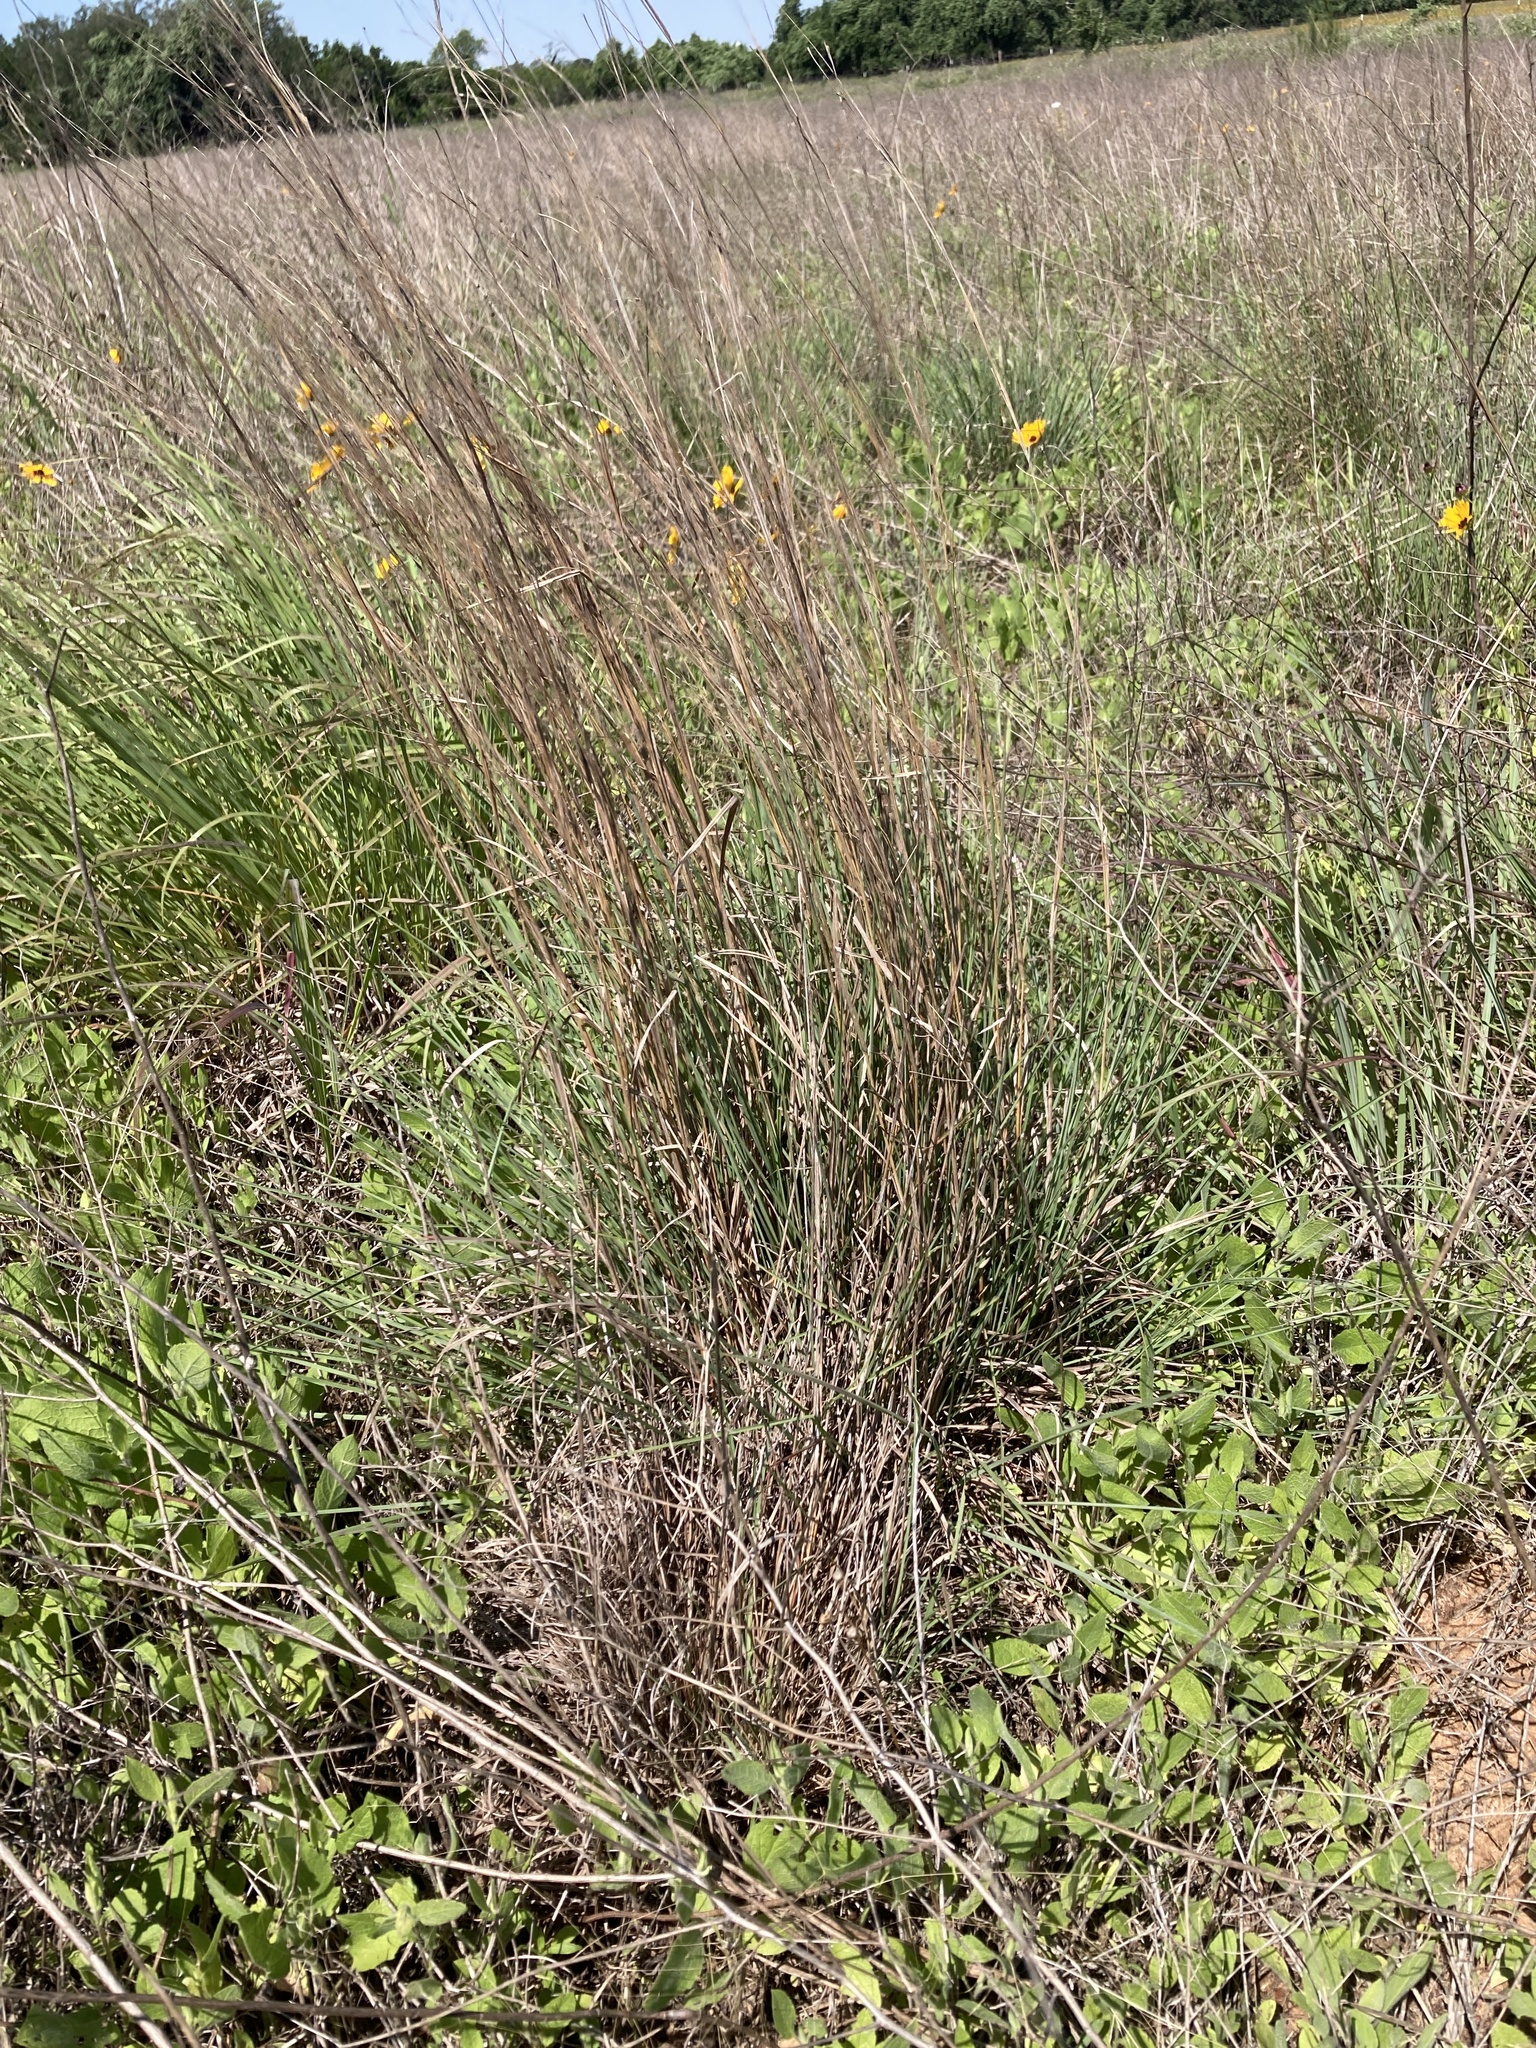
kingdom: Plantae
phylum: Tracheophyta
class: Liliopsida
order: Poales
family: Poaceae
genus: Schizachyrium
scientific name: Schizachyrium scoparium
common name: Little bluestem
